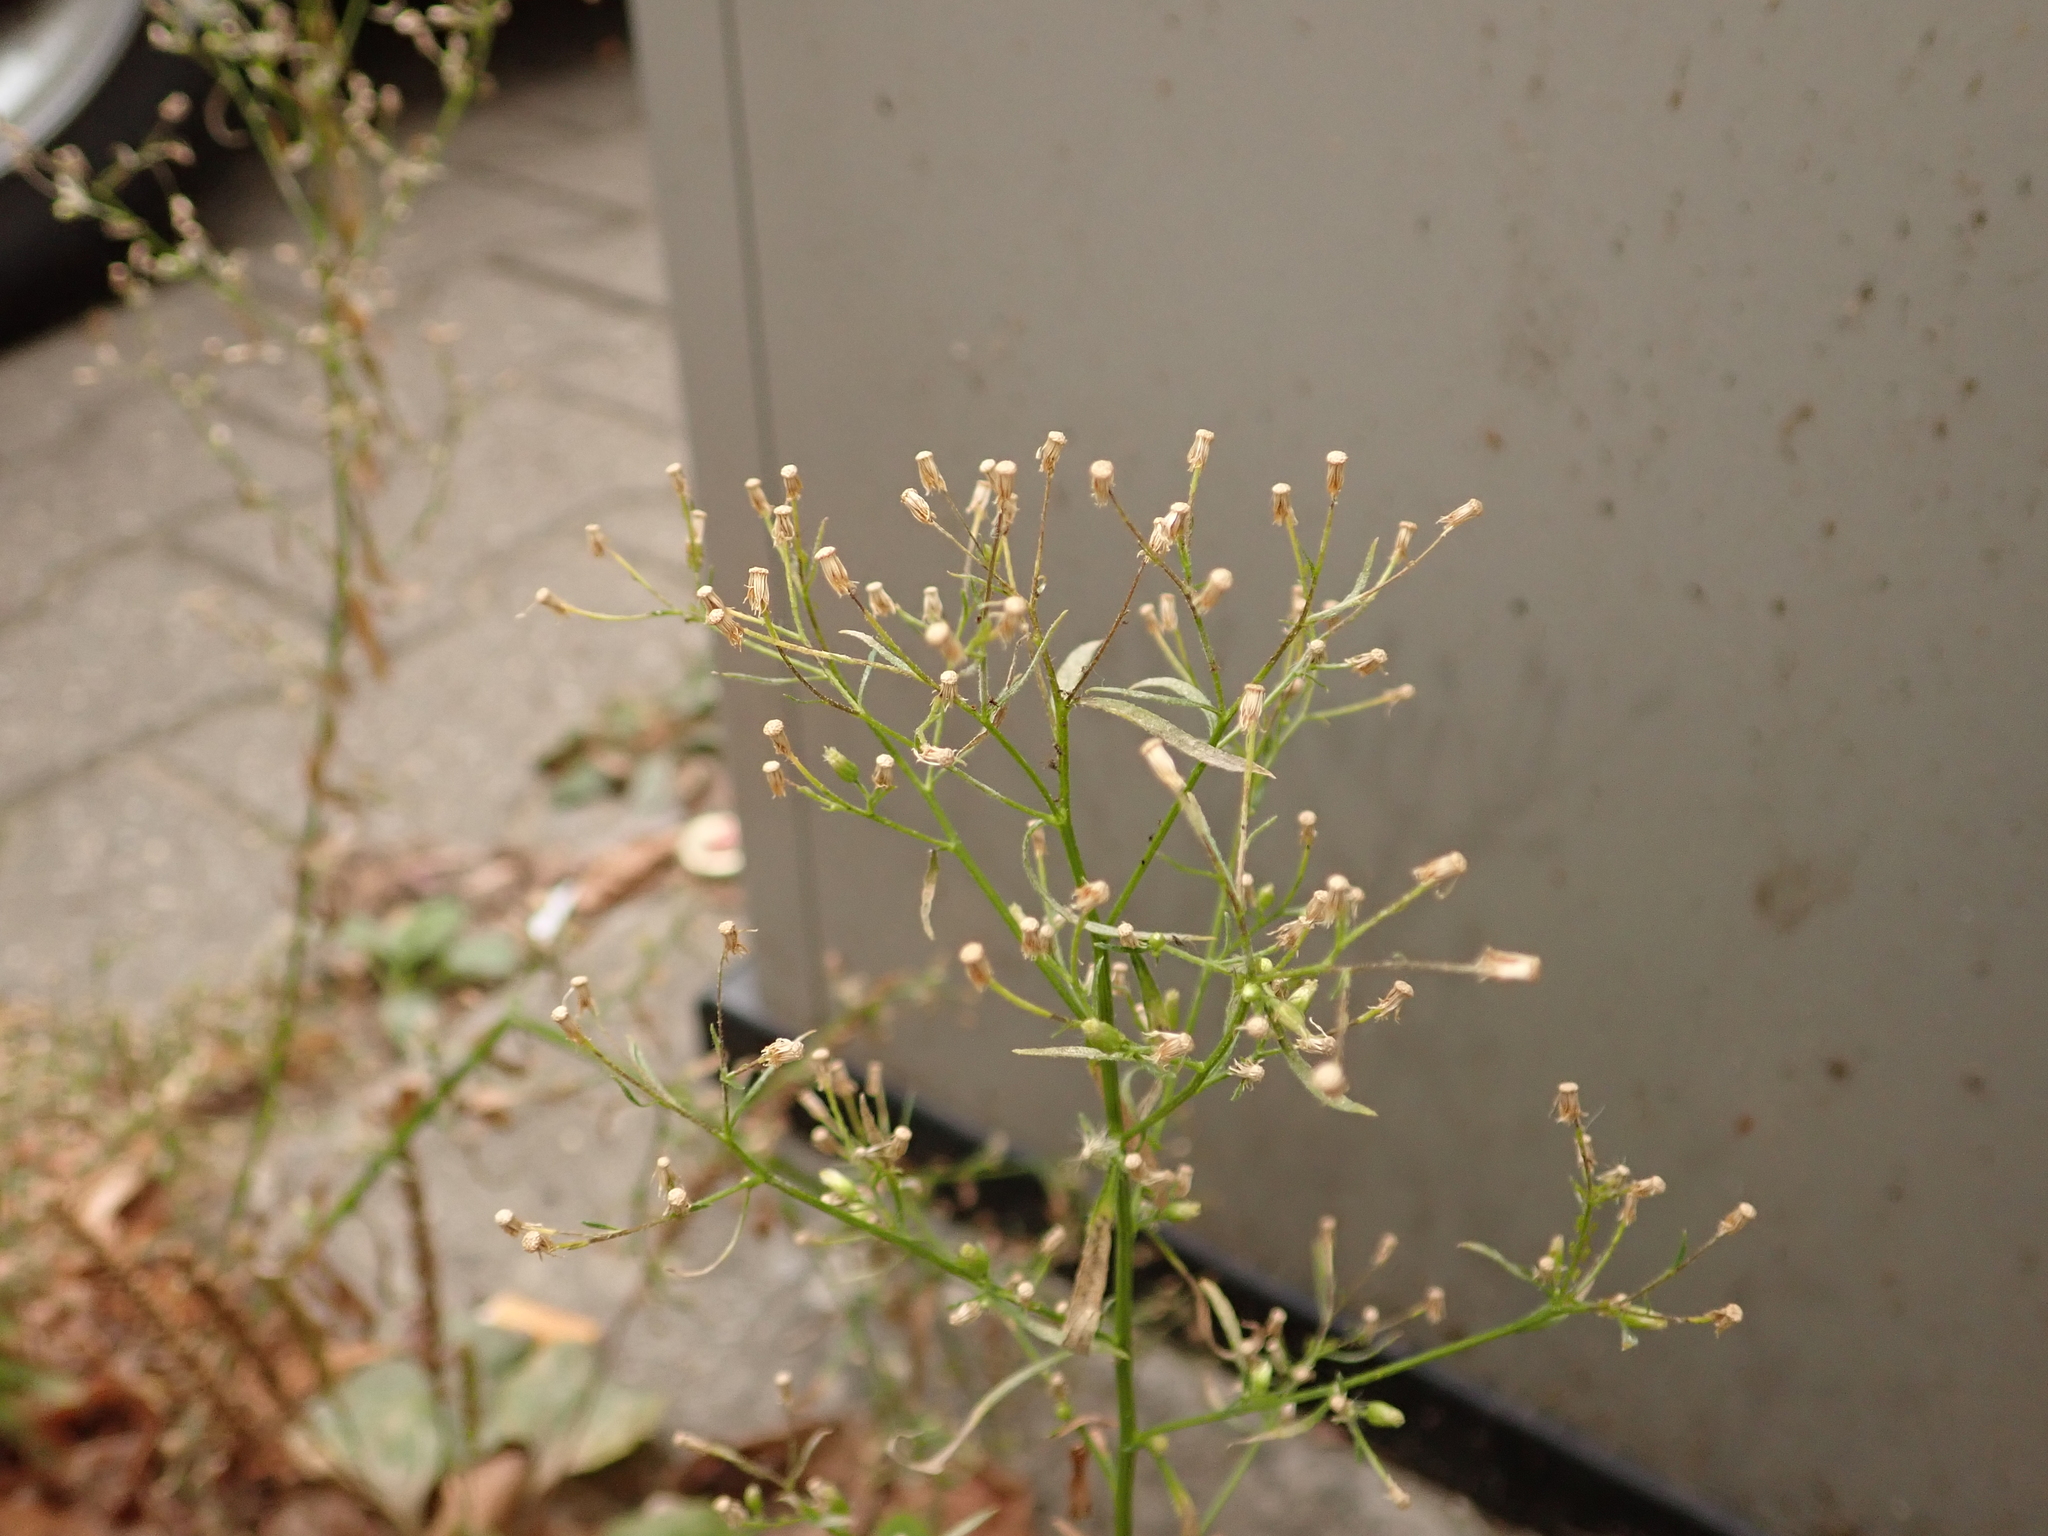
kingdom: Plantae
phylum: Tracheophyta
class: Magnoliopsida
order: Asterales
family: Asteraceae
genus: Erigeron
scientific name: Erigeron canadensis
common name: Canadian fleabane
